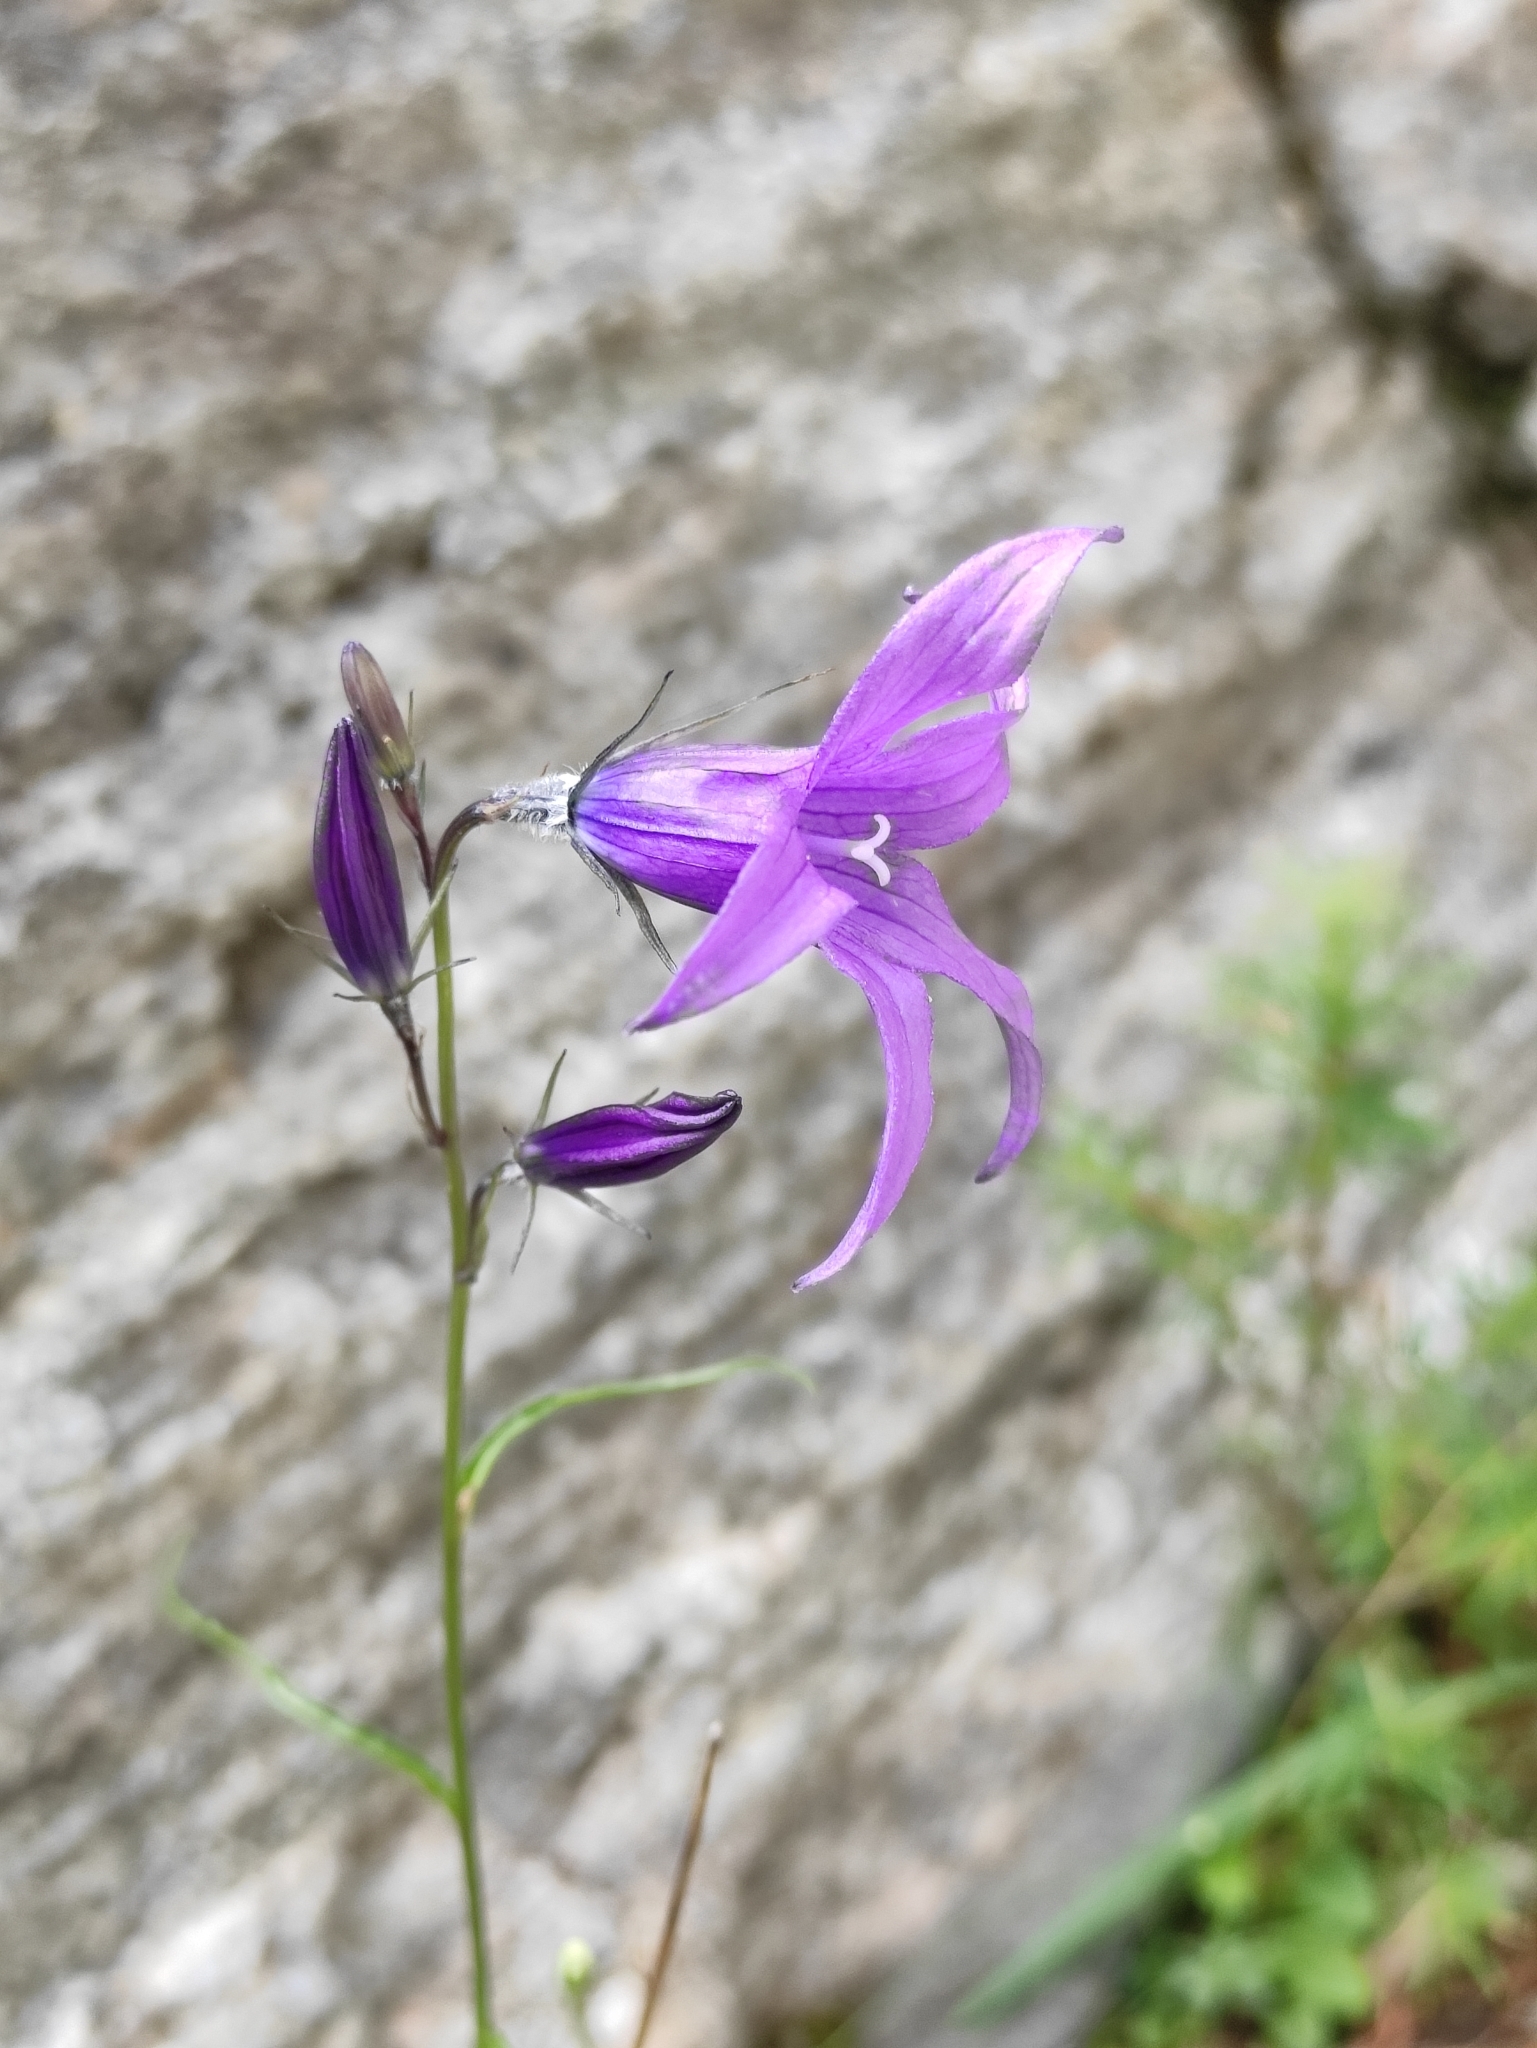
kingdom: Plantae
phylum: Tracheophyta
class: Magnoliopsida
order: Asterales
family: Campanulaceae
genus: Campanula
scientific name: Campanula stevenii
